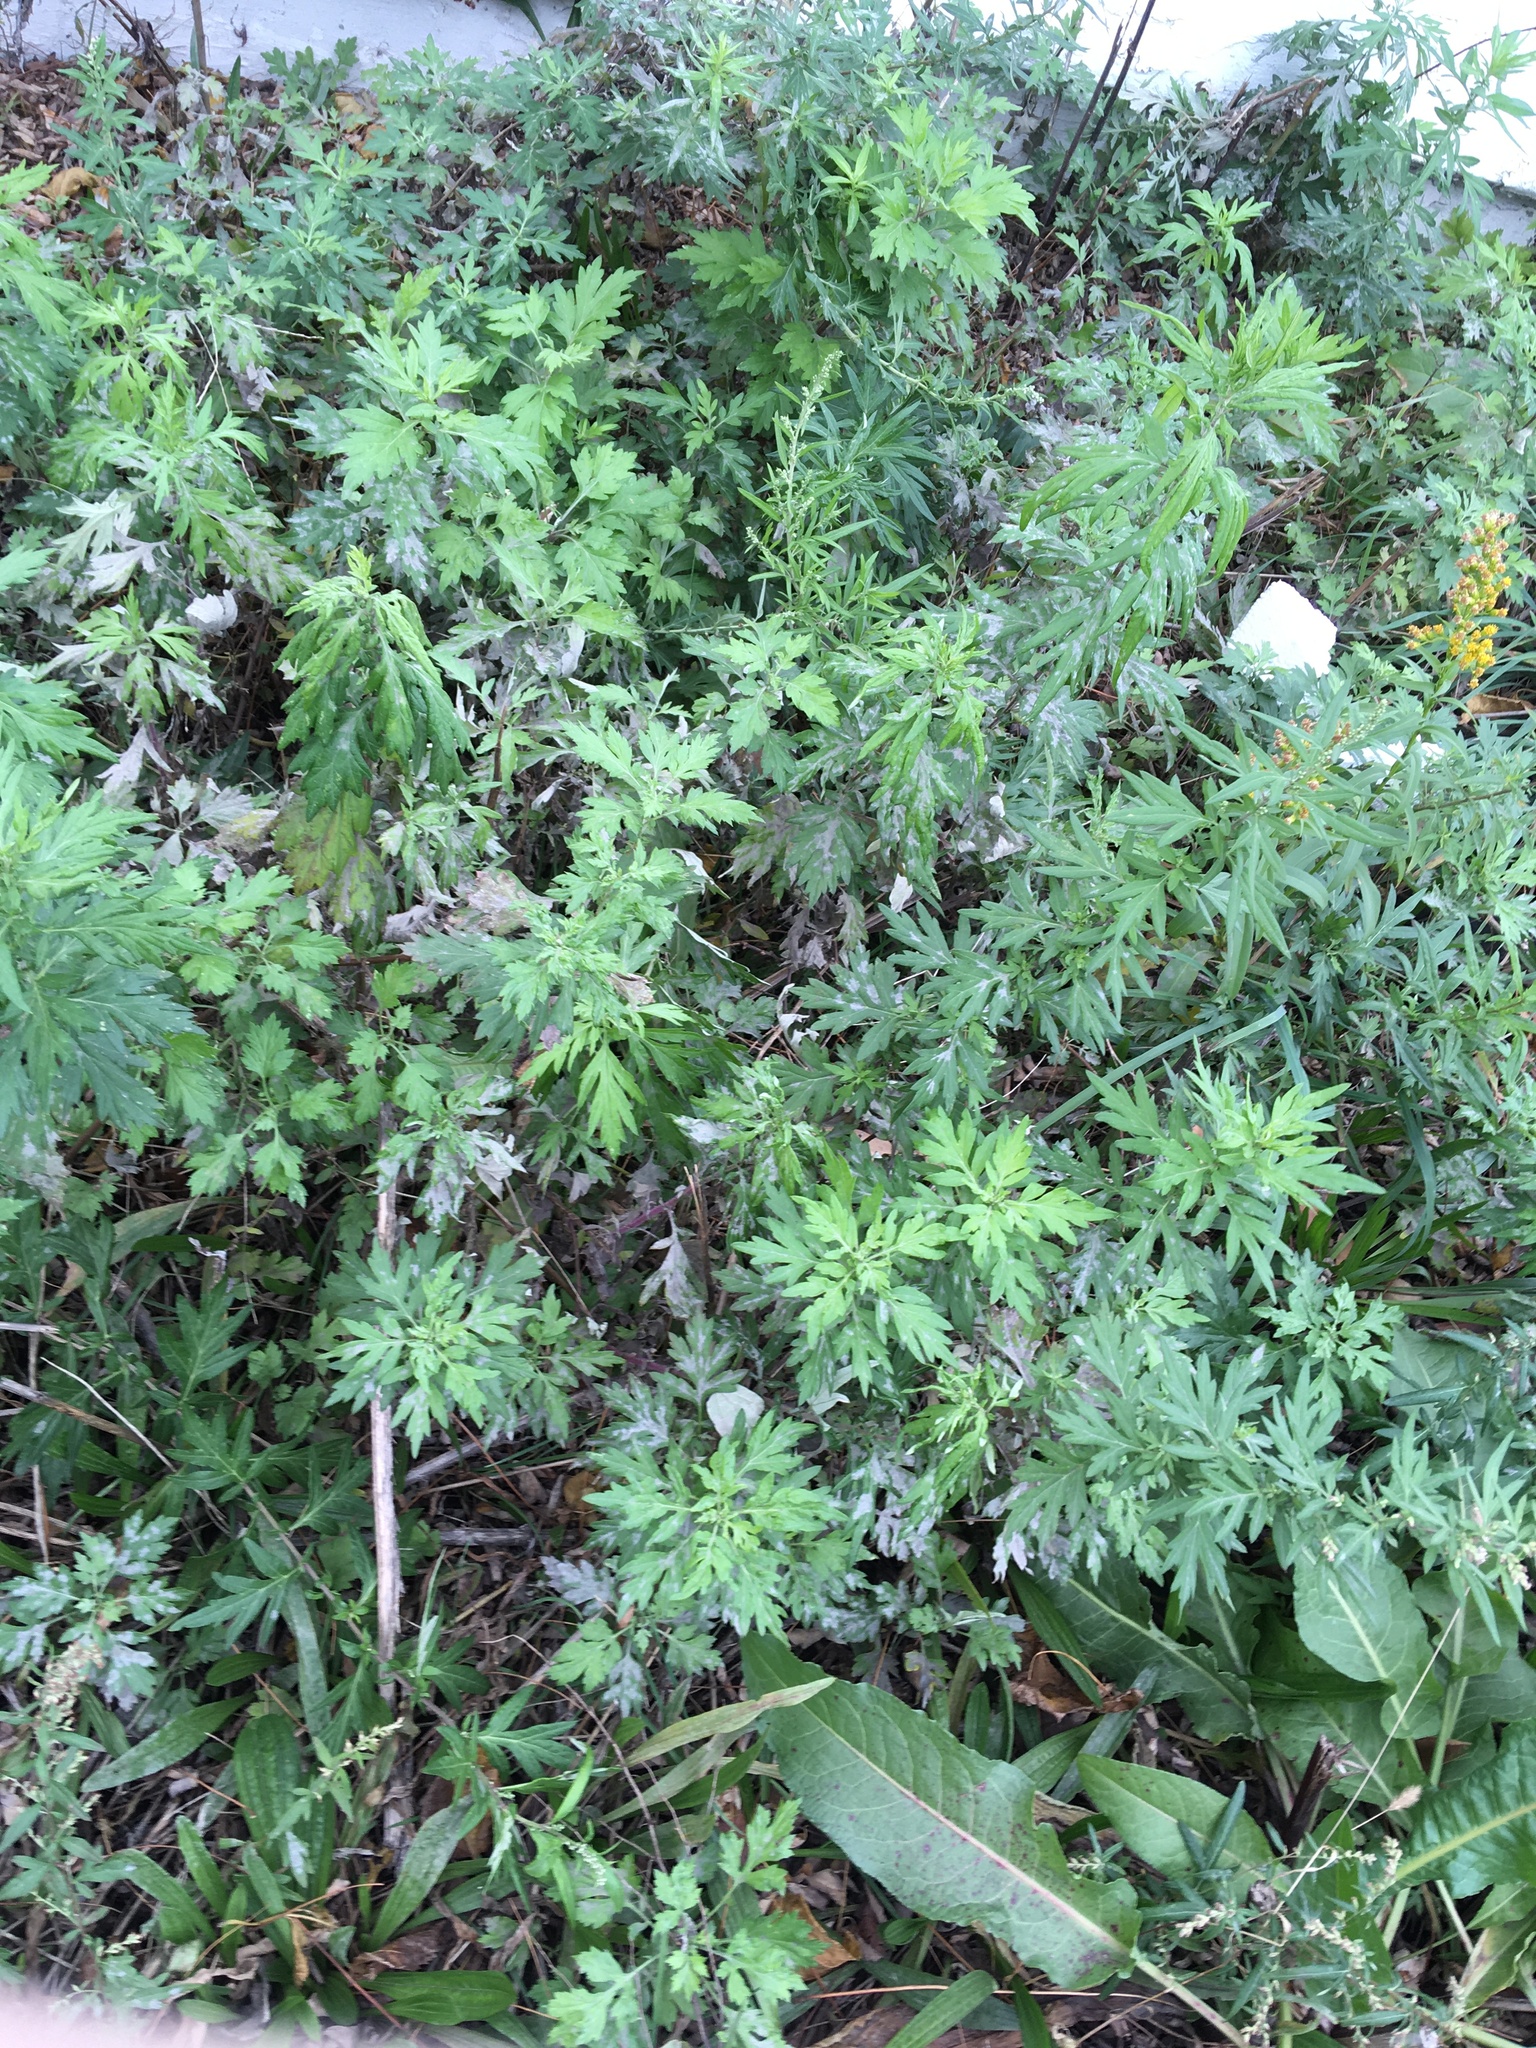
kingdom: Plantae
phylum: Tracheophyta
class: Magnoliopsida
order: Asterales
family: Asteraceae
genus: Artemisia
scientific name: Artemisia vulgaris
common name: Mugwort
